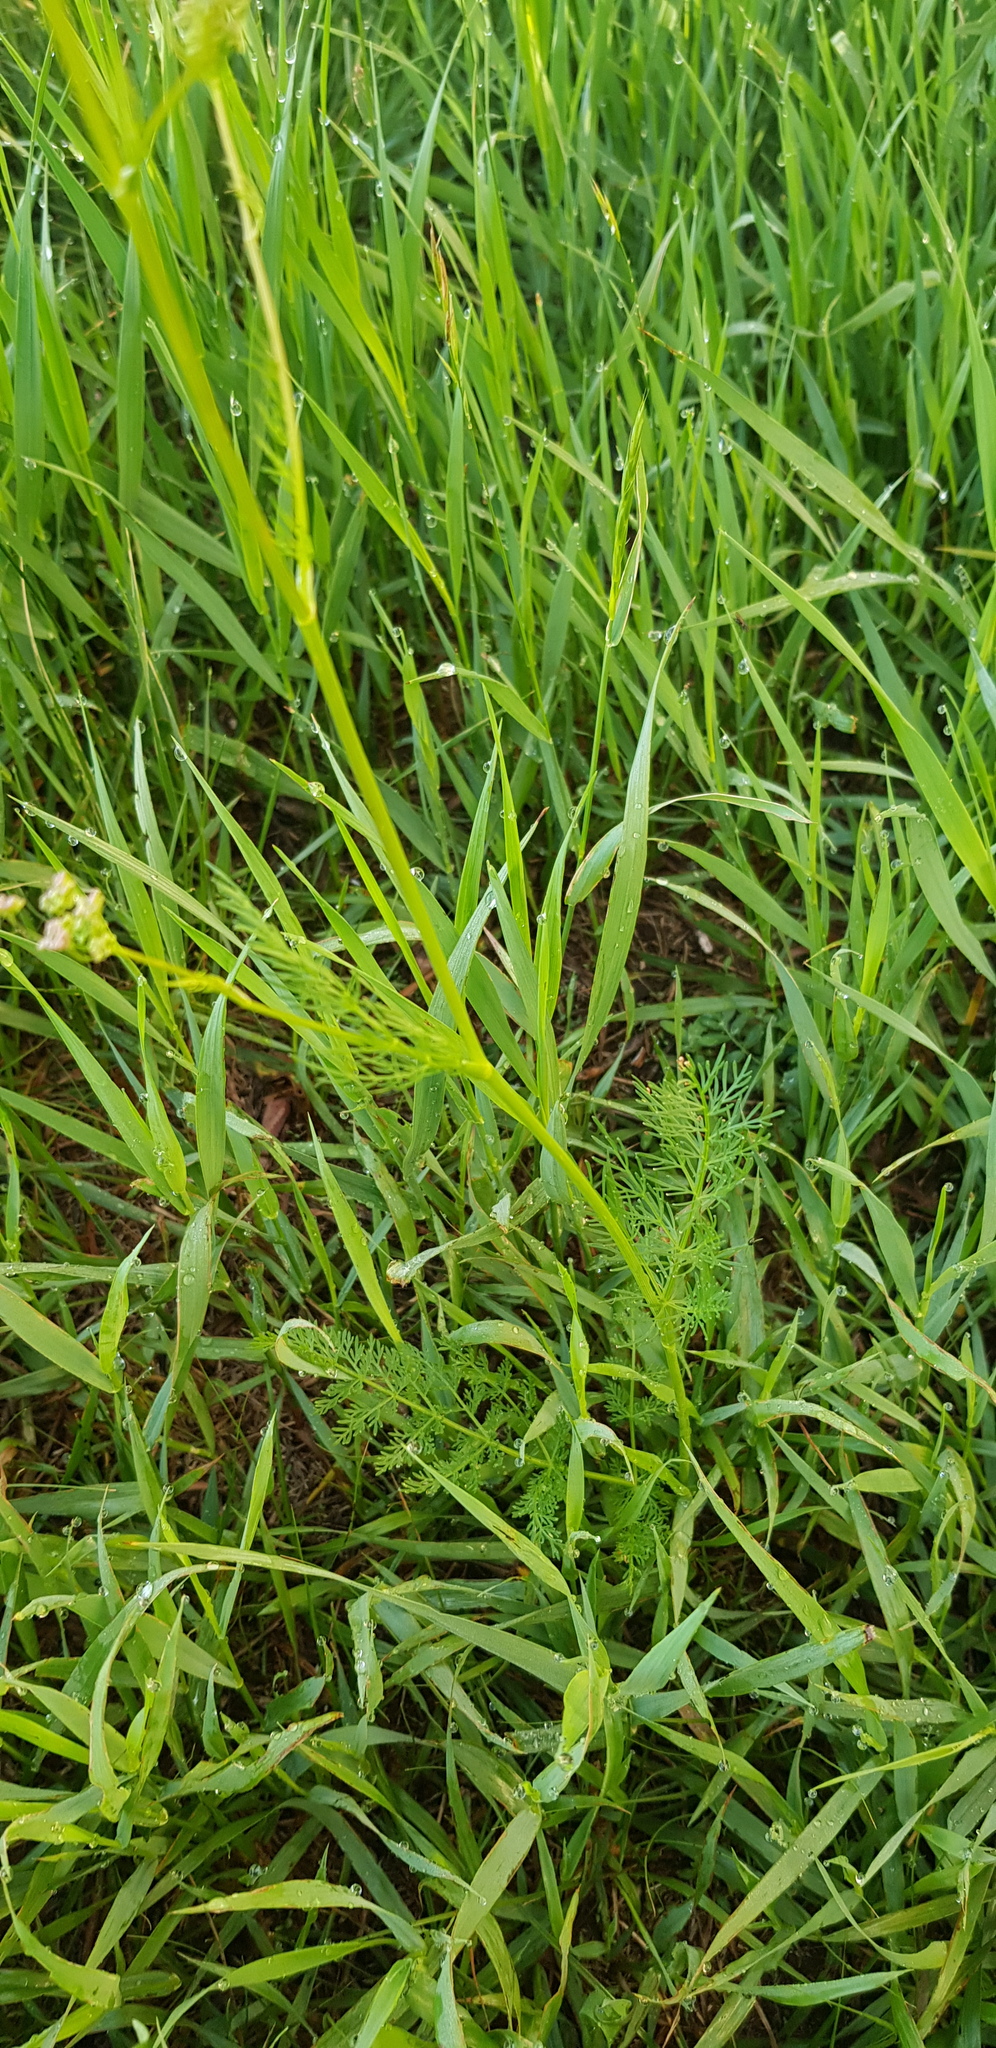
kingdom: Plantae
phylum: Tracheophyta
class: Magnoliopsida
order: Apiales
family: Apiaceae
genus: Carum
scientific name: Carum buriaticum
